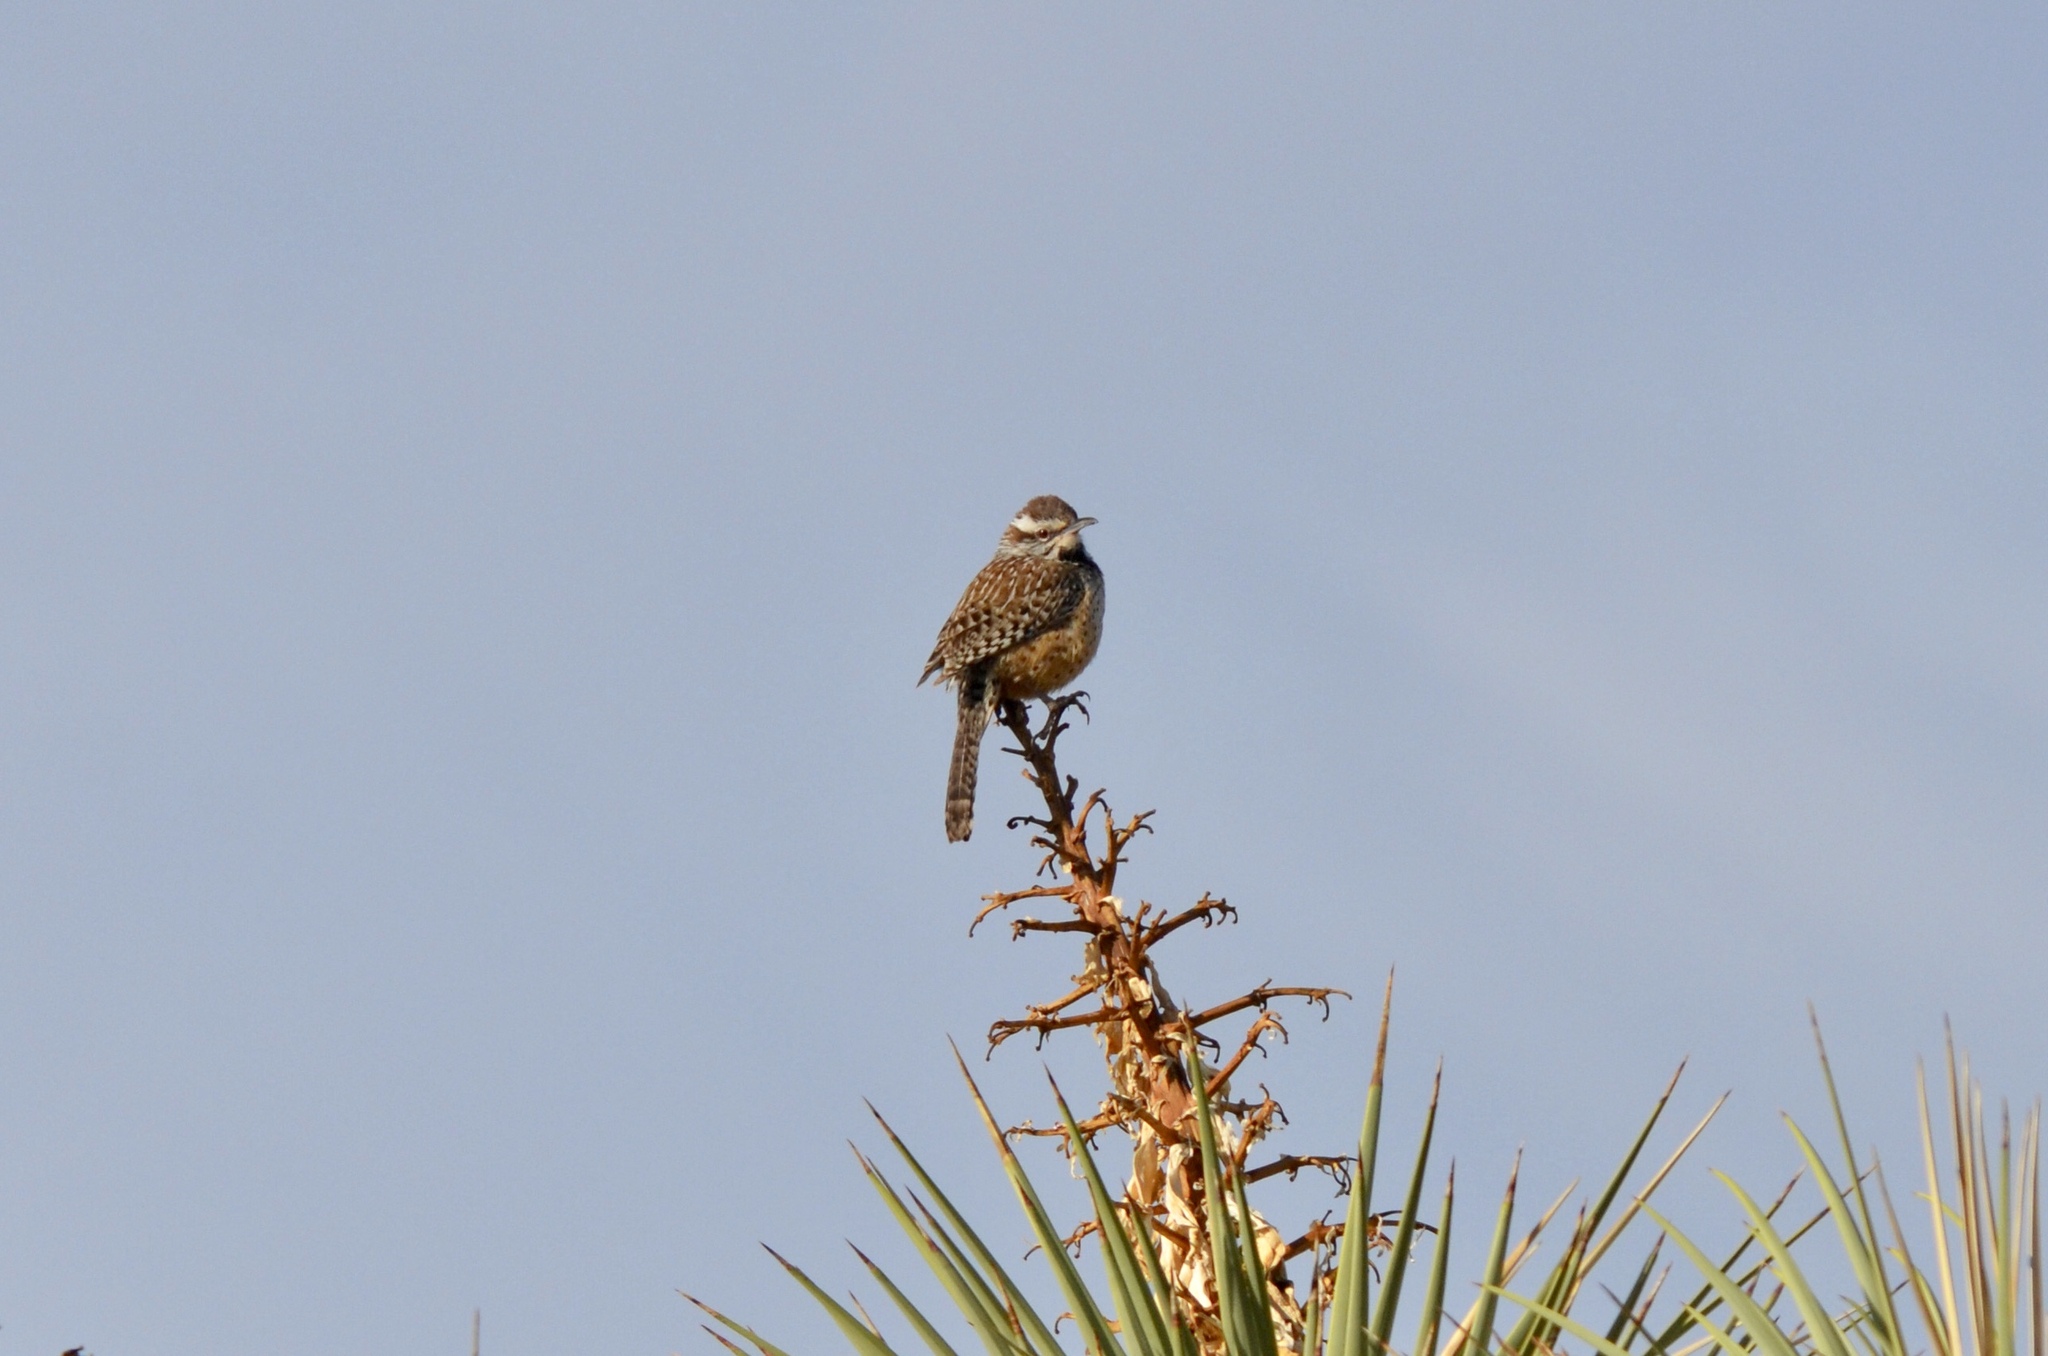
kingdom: Animalia
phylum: Chordata
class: Aves
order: Passeriformes
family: Troglodytidae
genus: Campylorhynchus
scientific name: Campylorhynchus brunneicapillus
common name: Cactus wren
